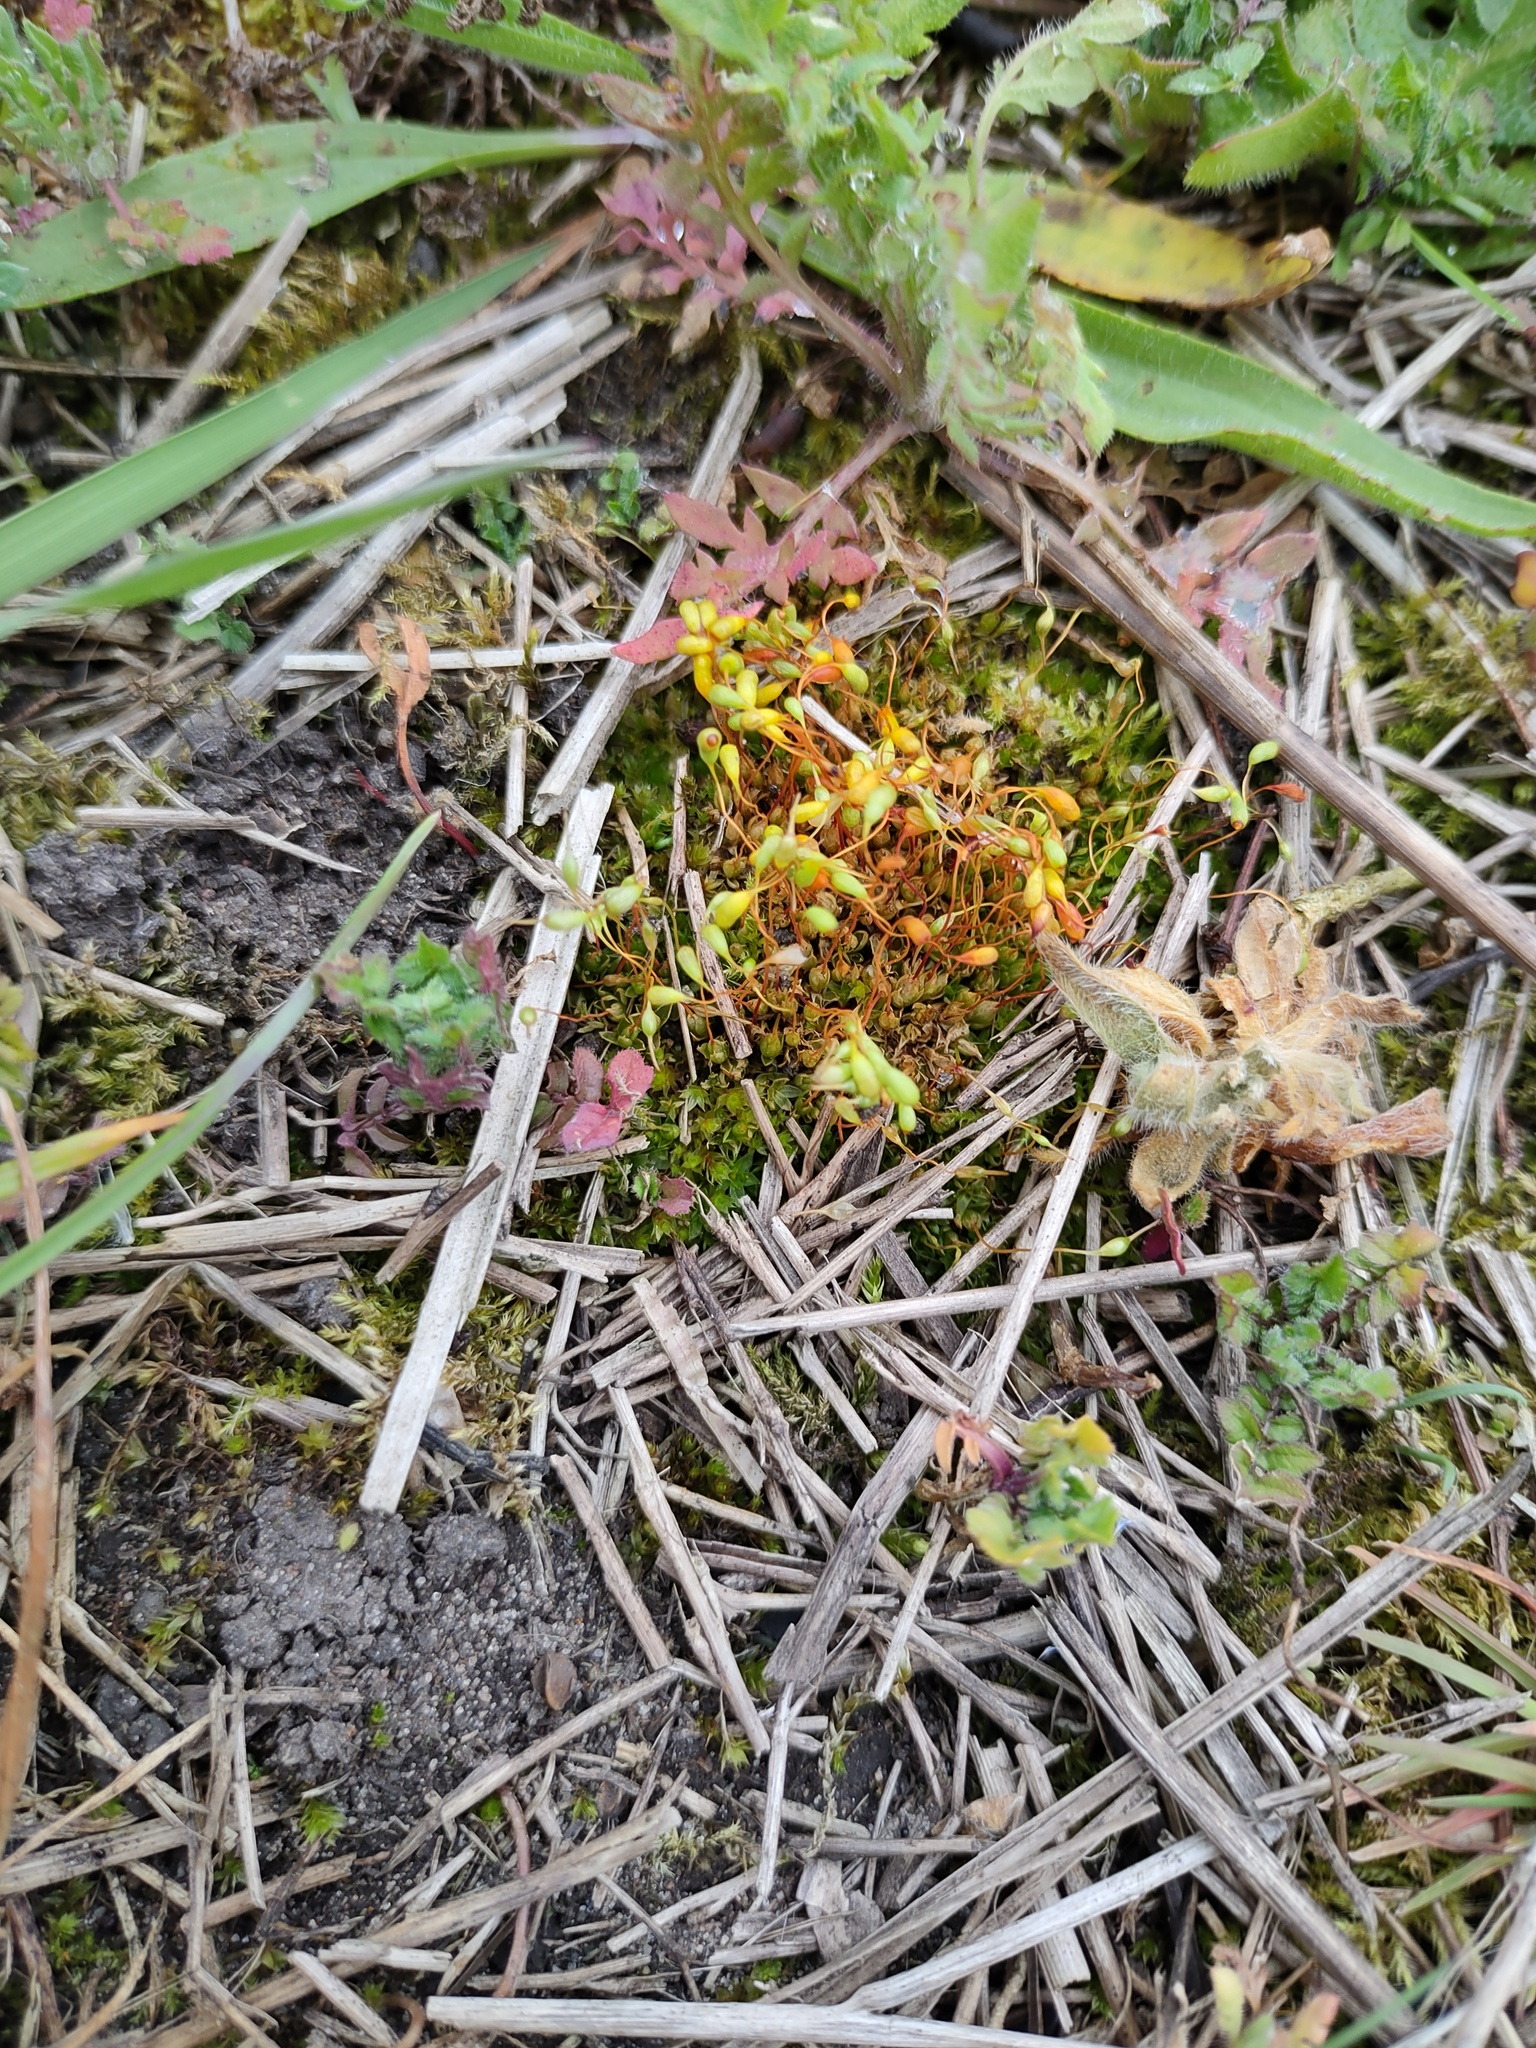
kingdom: Plantae
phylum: Bryophyta
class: Bryopsida
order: Funariales
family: Funariaceae
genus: Funaria
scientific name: Funaria hygrometrica
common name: Common cord moss
